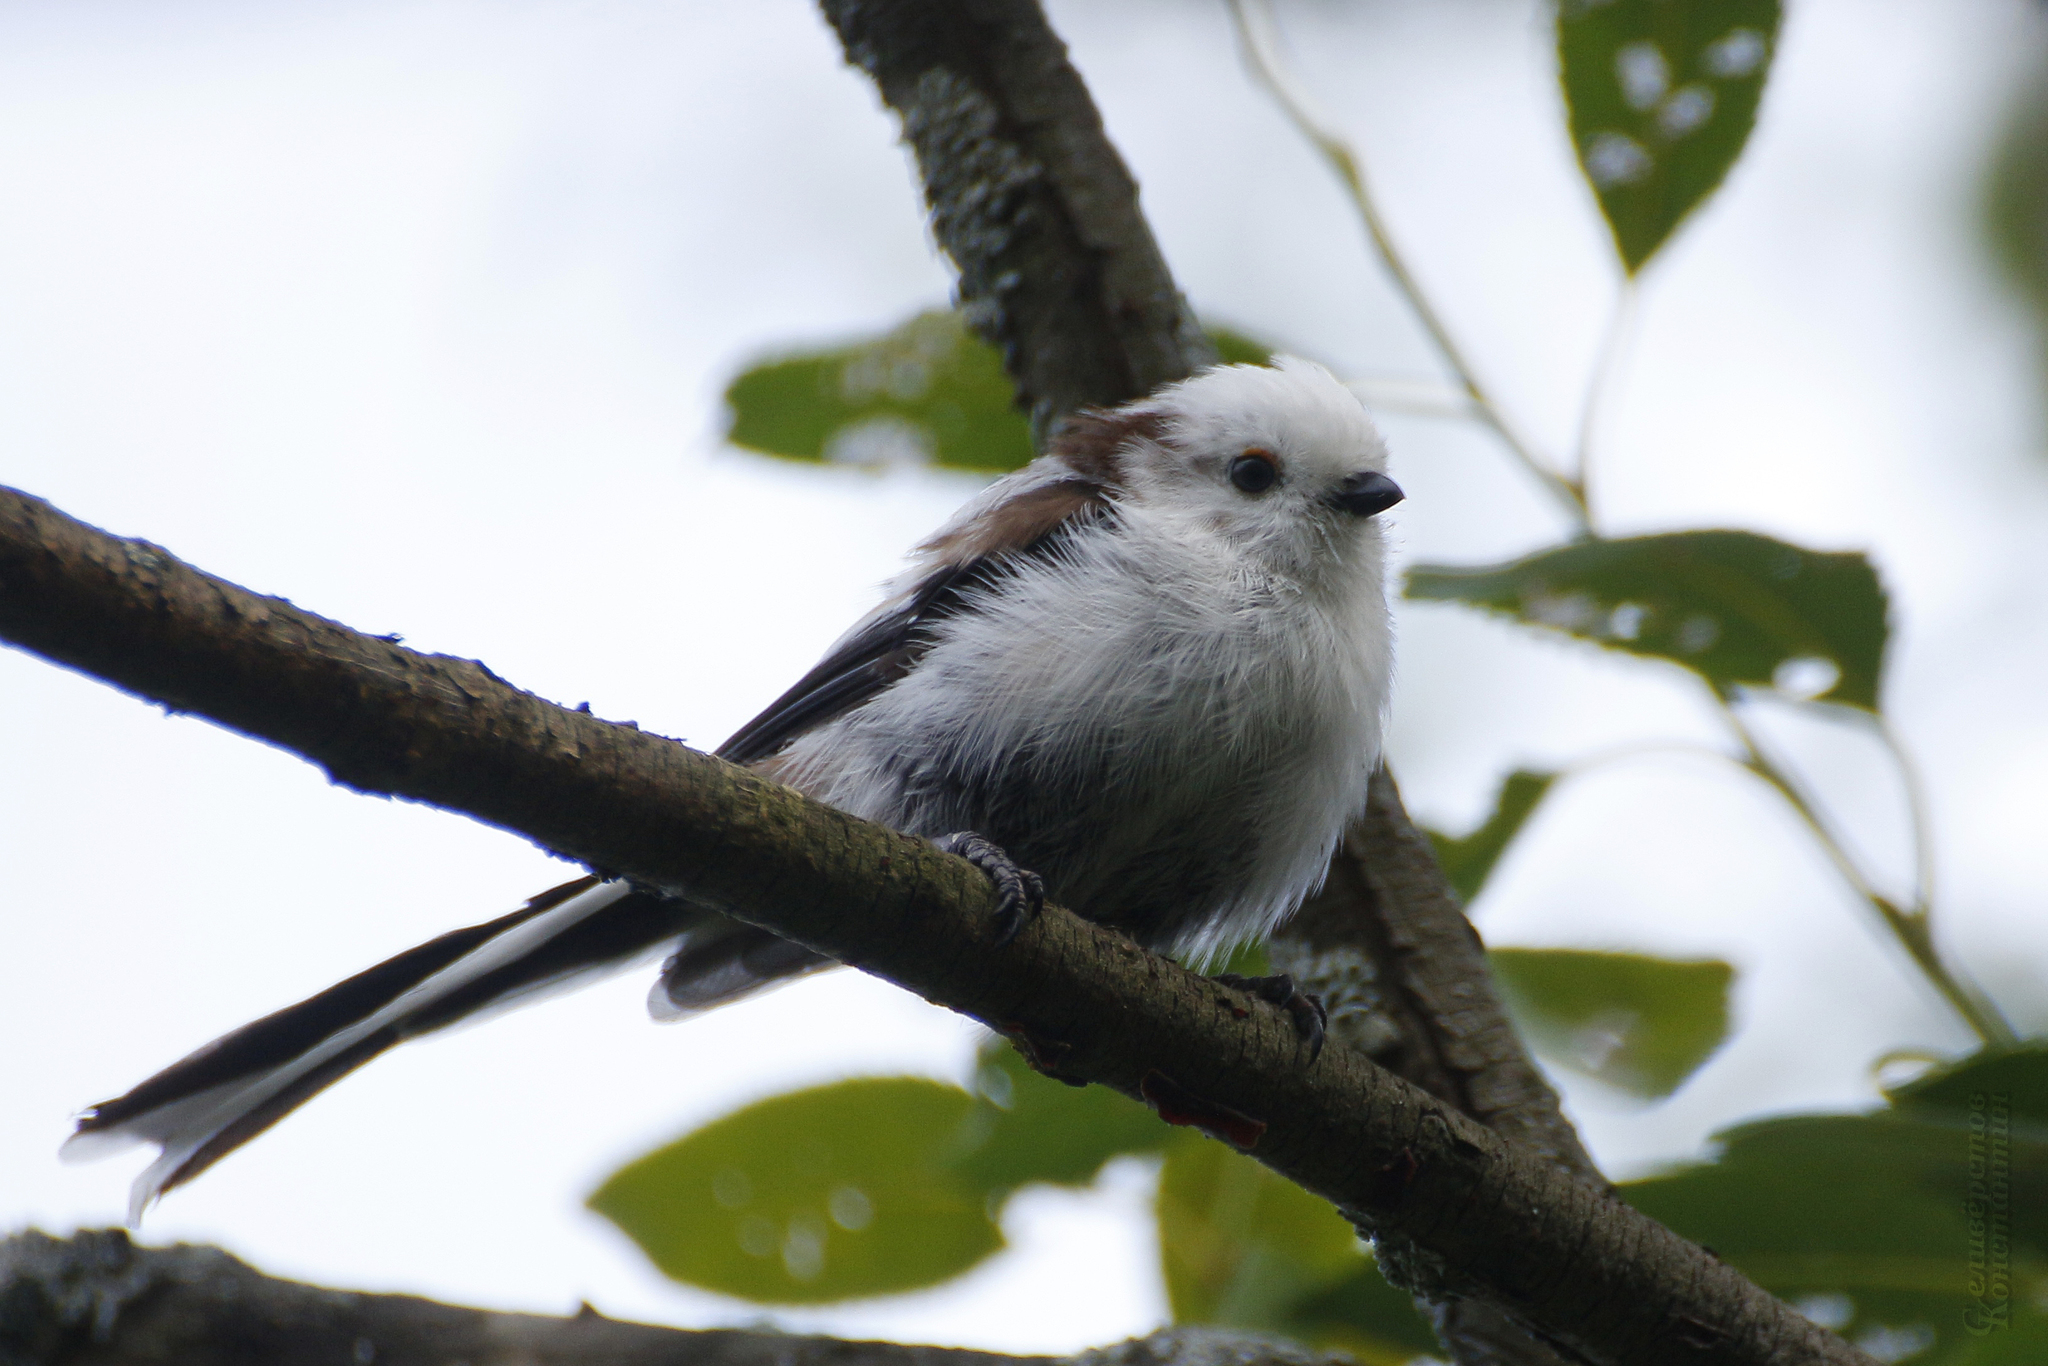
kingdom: Animalia
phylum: Chordata
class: Aves
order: Passeriformes
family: Aegithalidae
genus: Aegithalos
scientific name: Aegithalos caudatus
